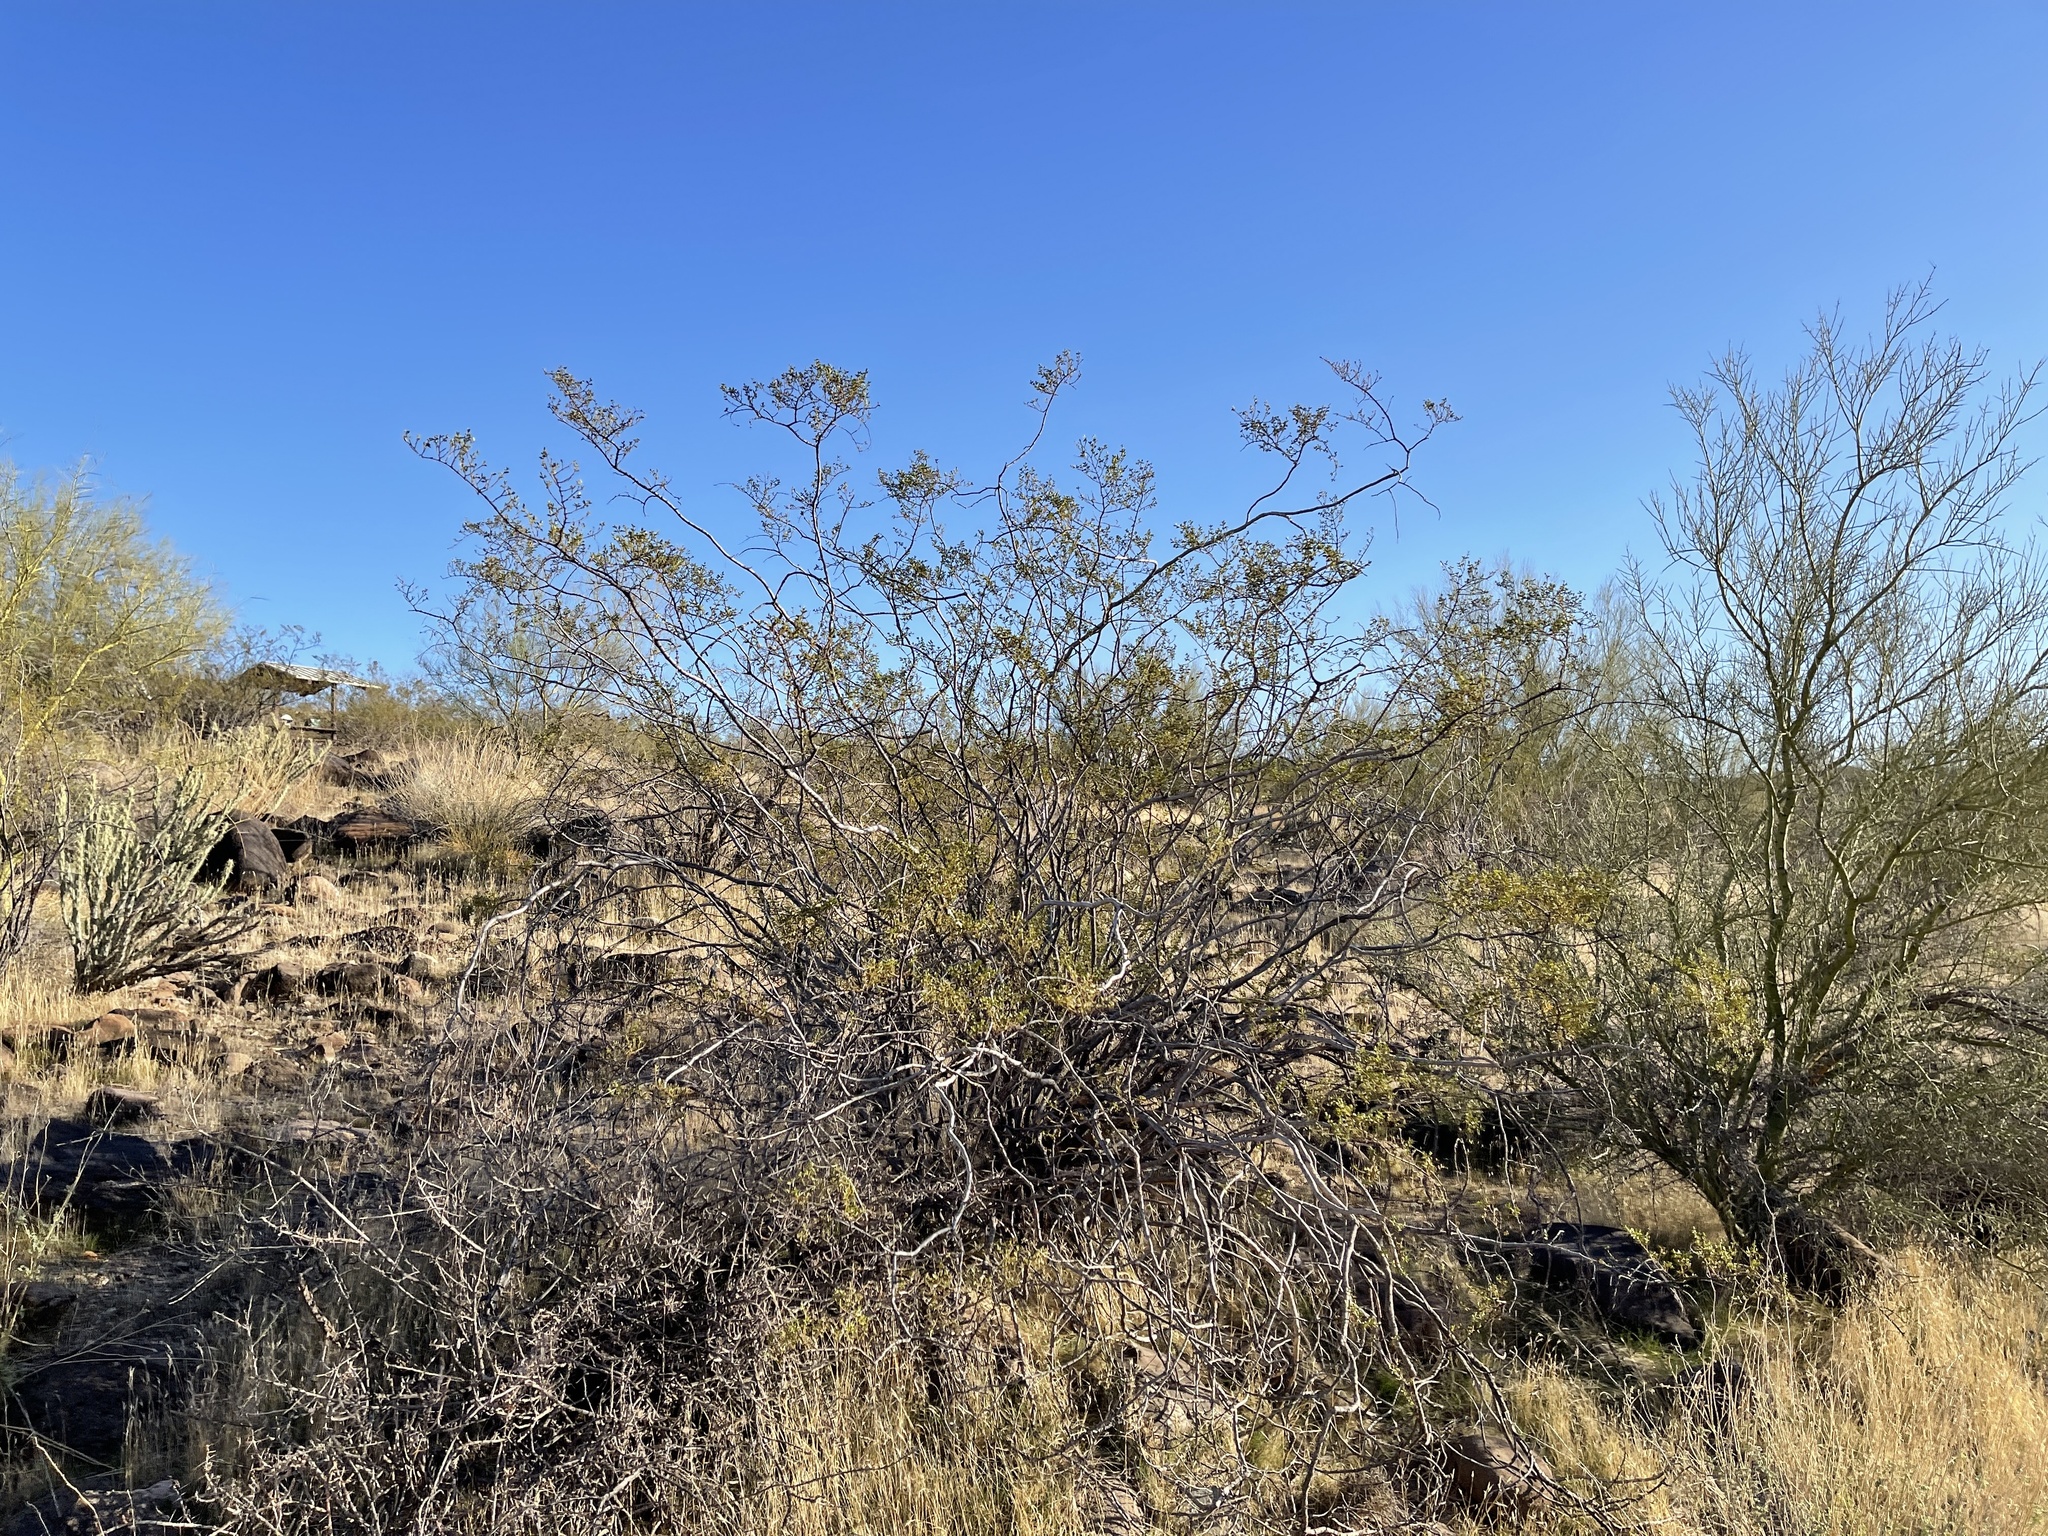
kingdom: Plantae
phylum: Tracheophyta
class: Magnoliopsida
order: Zygophyllales
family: Zygophyllaceae
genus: Larrea
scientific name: Larrea tridentata
